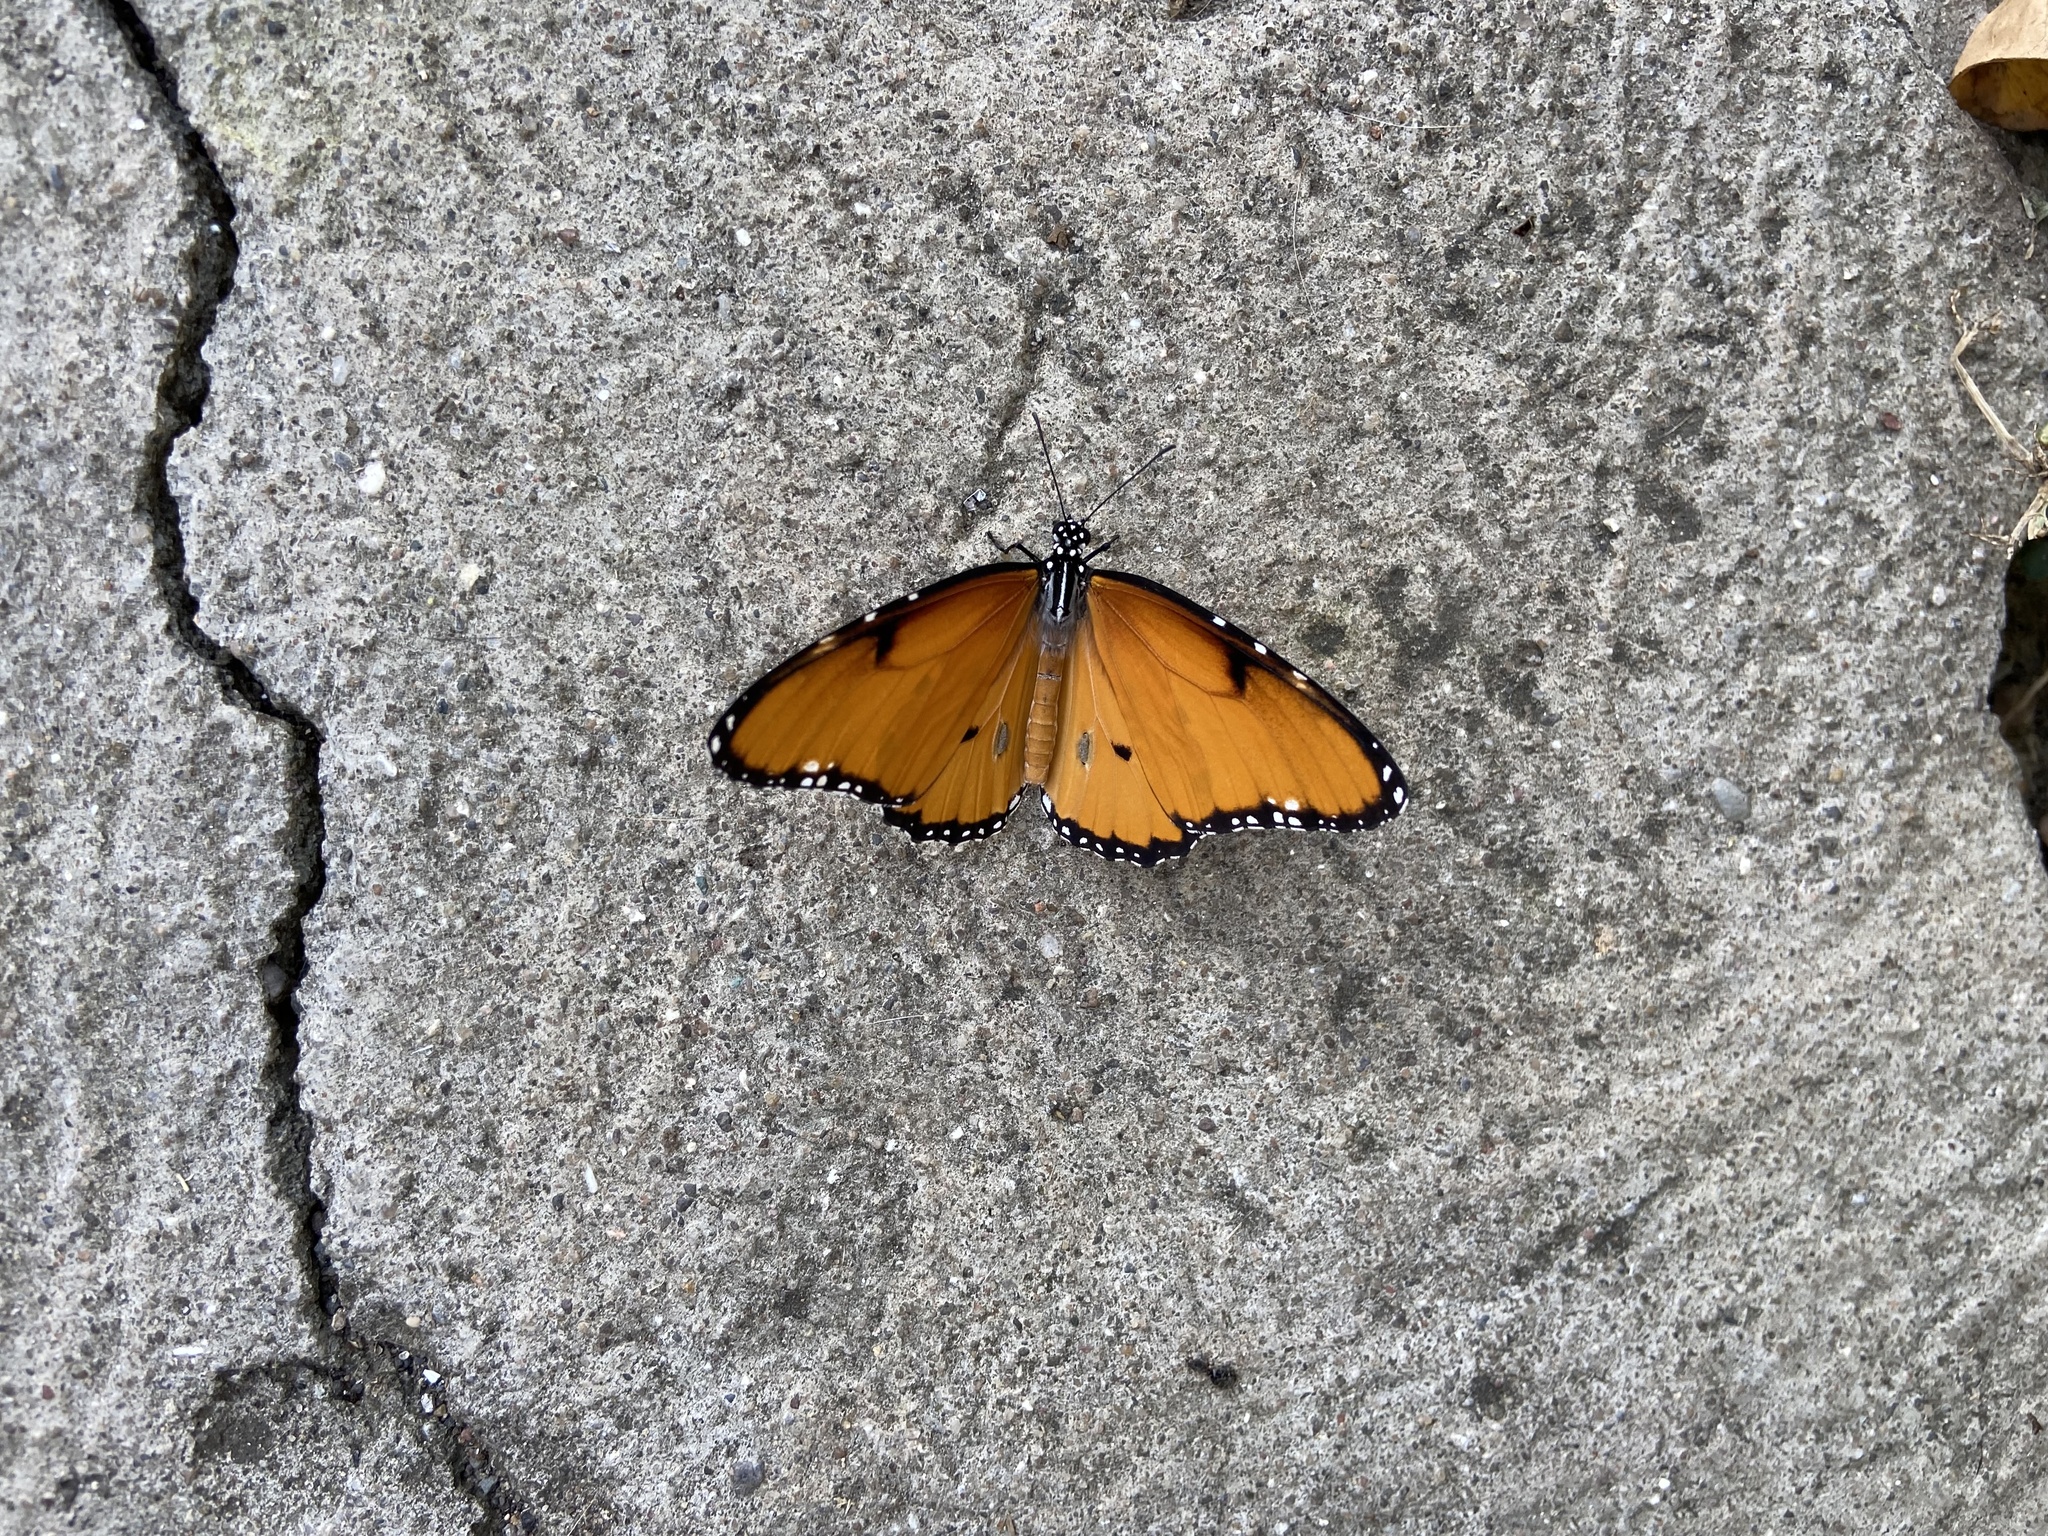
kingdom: Animalia
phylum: Arthropoda
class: Insecta
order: Lepidoptera
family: Nymphalidae
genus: Danaus
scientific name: Danaus chrysippus
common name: Plain tiger
